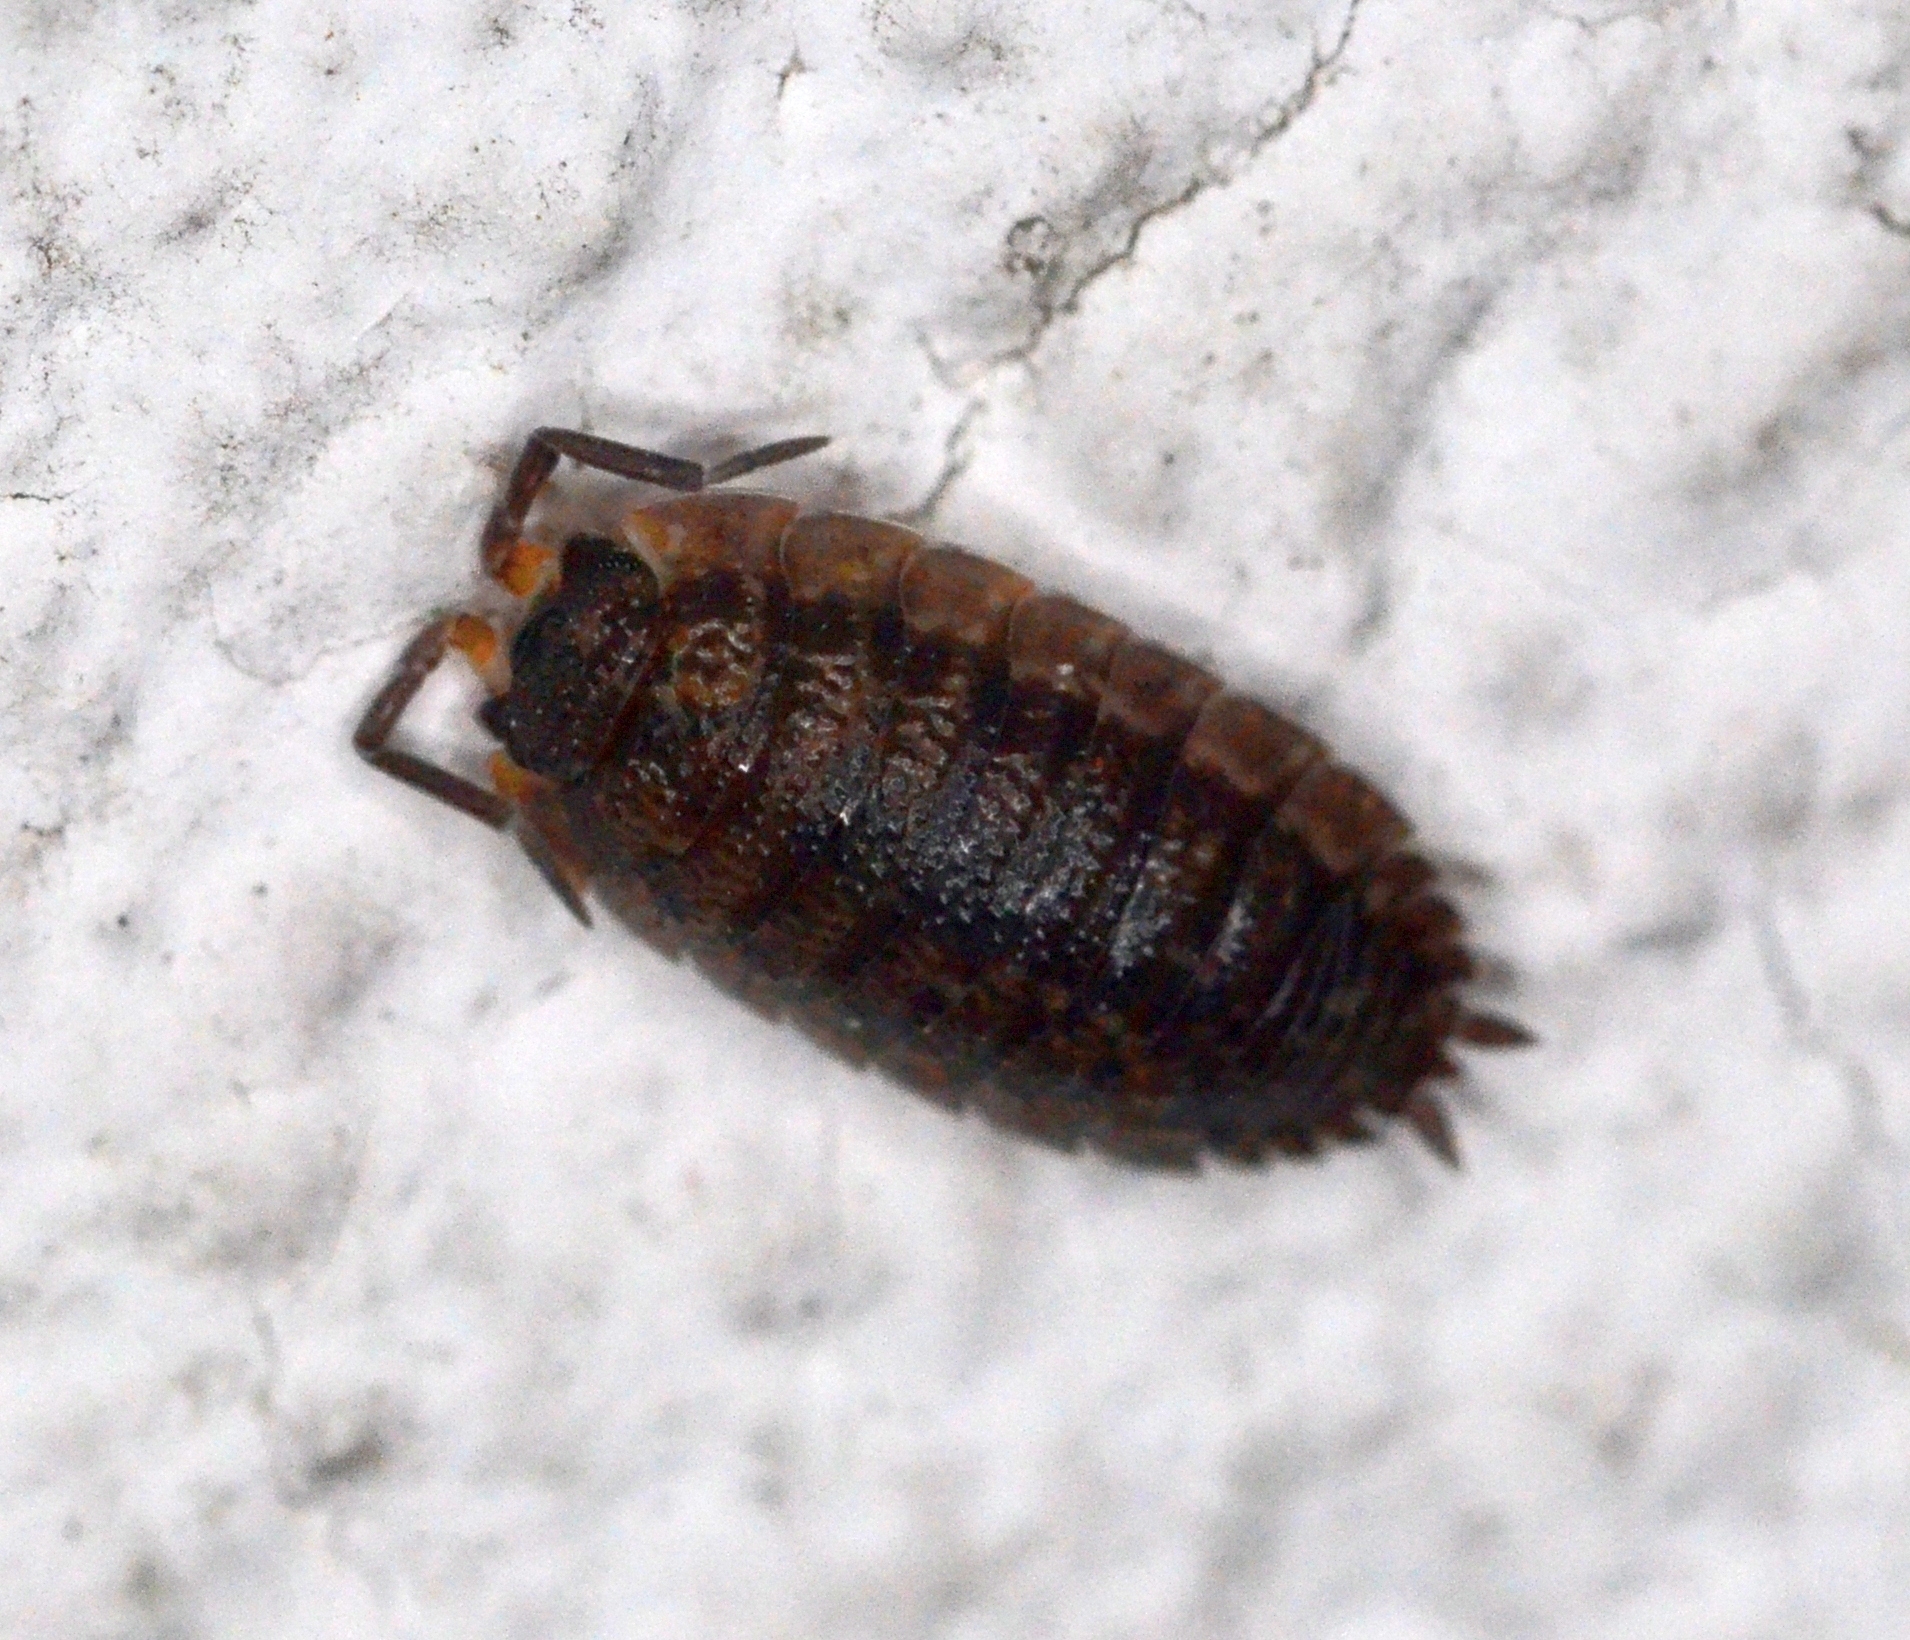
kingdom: Animalia
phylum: Arthropoda
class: Malacostraca
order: Isopoda
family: Porcellionidae
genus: Porcellio
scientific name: Porcellio scaber
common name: Common rough woodlouse
